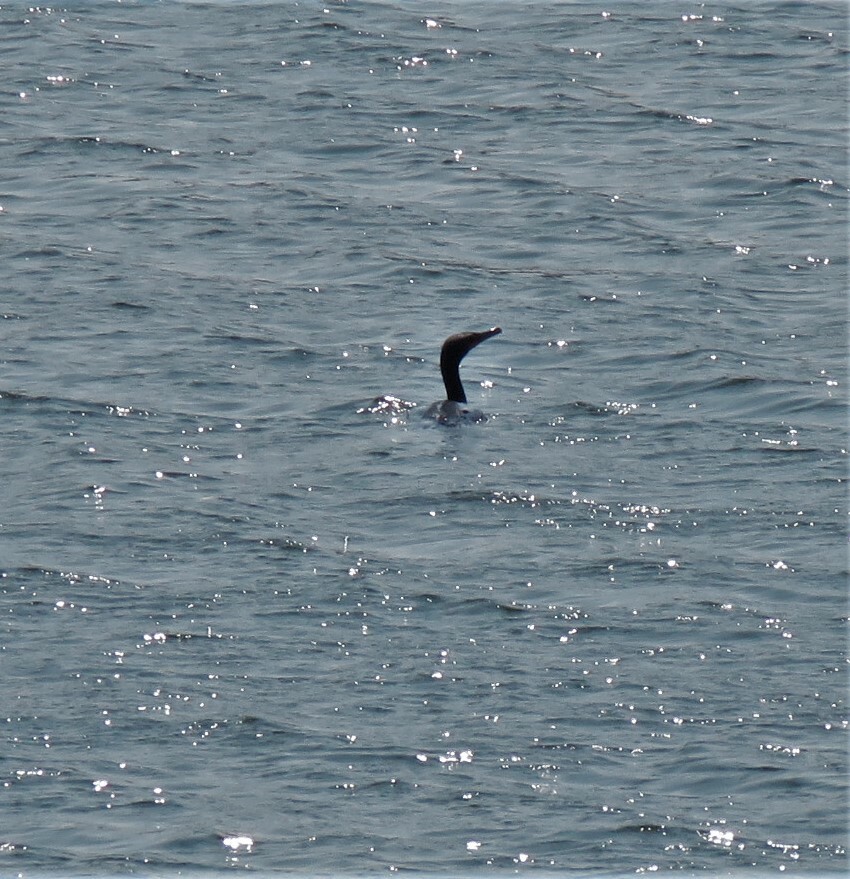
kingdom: Animalia
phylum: Chordata
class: Aves
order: Suliformes
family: Phalacrocoracidae
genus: Phalacrocorax
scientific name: Phalacrocorax auritus
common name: Double-crested cormorant
